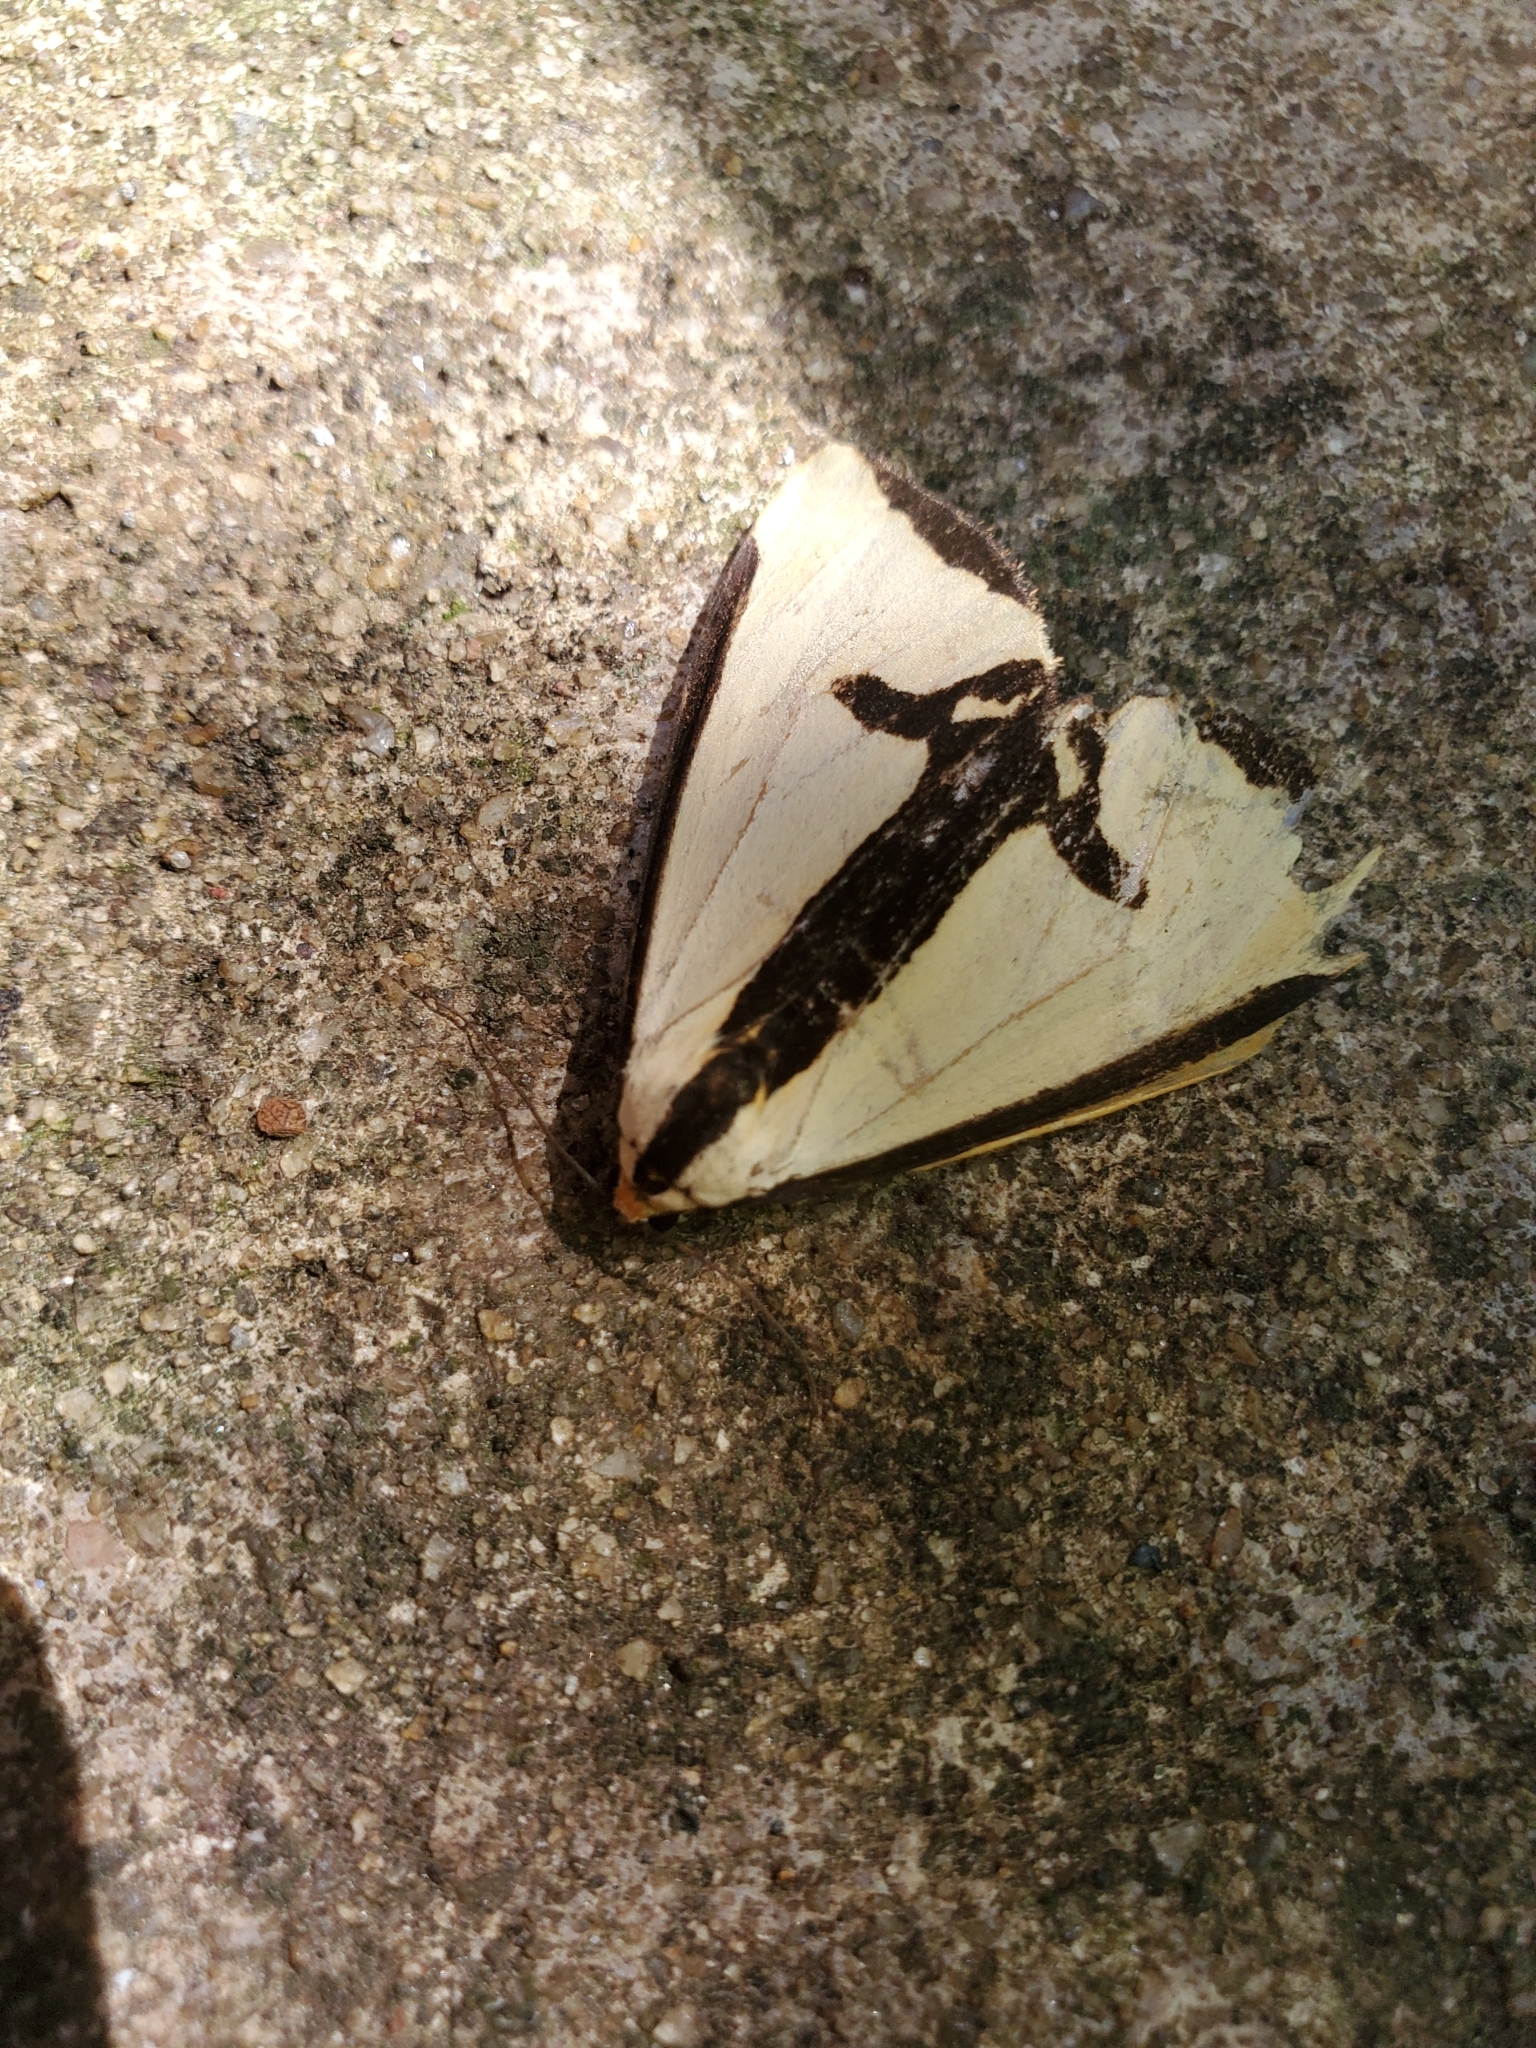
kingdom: Animalia
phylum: Arthropoda
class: Insecta
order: Lepidoptera
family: Erebidae
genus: Haploa
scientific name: Haploa clymene
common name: Clymene moth
